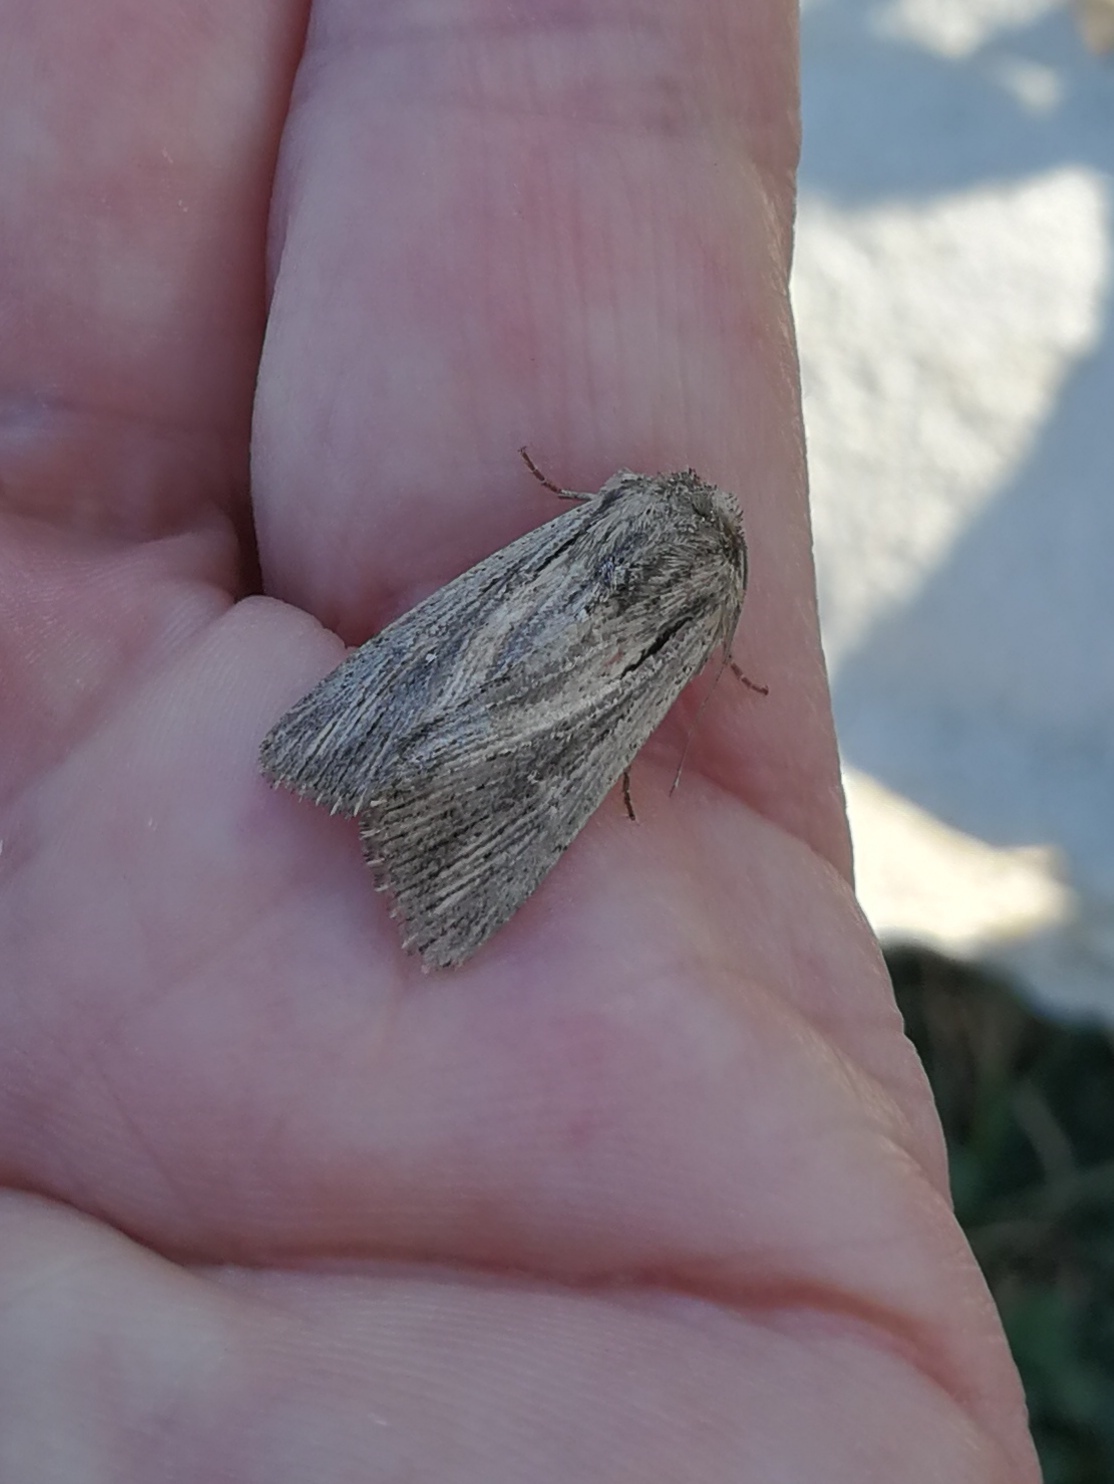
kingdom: Animalia
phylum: Arthropoda
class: Insecta
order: Lepidoptera
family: Noctuidae
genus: Leucania
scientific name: Leucania putrescens
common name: Devonshire wainscot
